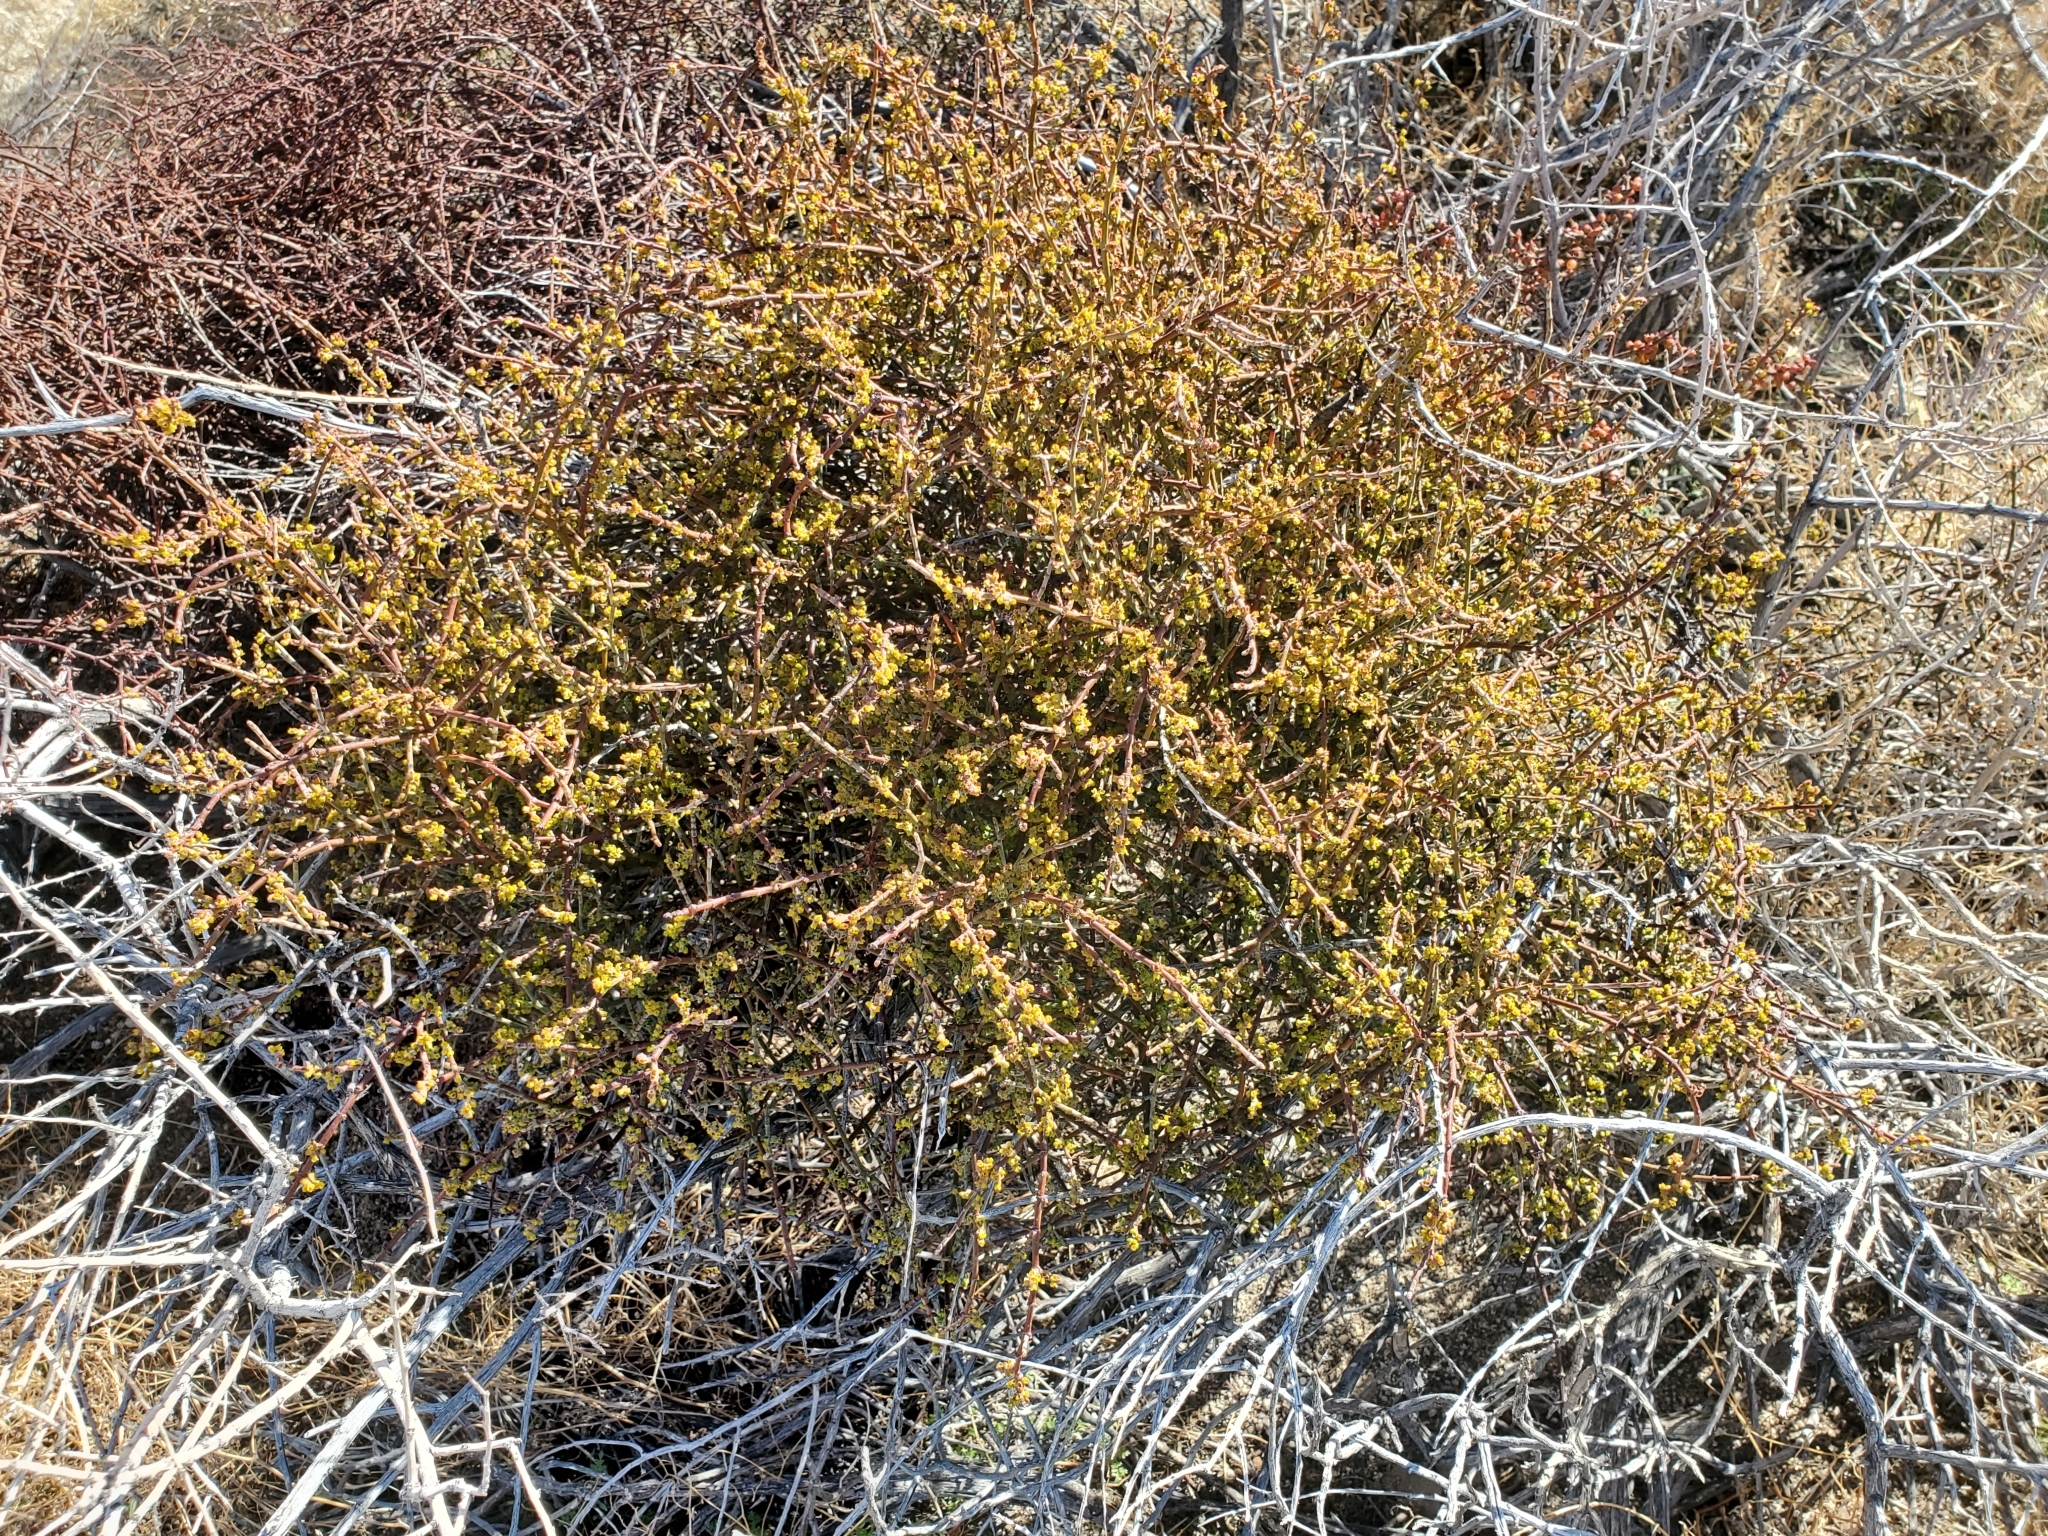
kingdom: Plantae
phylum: Tracheophyta
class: Magnoliopsida
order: Santalales
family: Viscaceae
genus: Phoradendron
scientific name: Phoradendron californicum
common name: Acacia mistletoe
